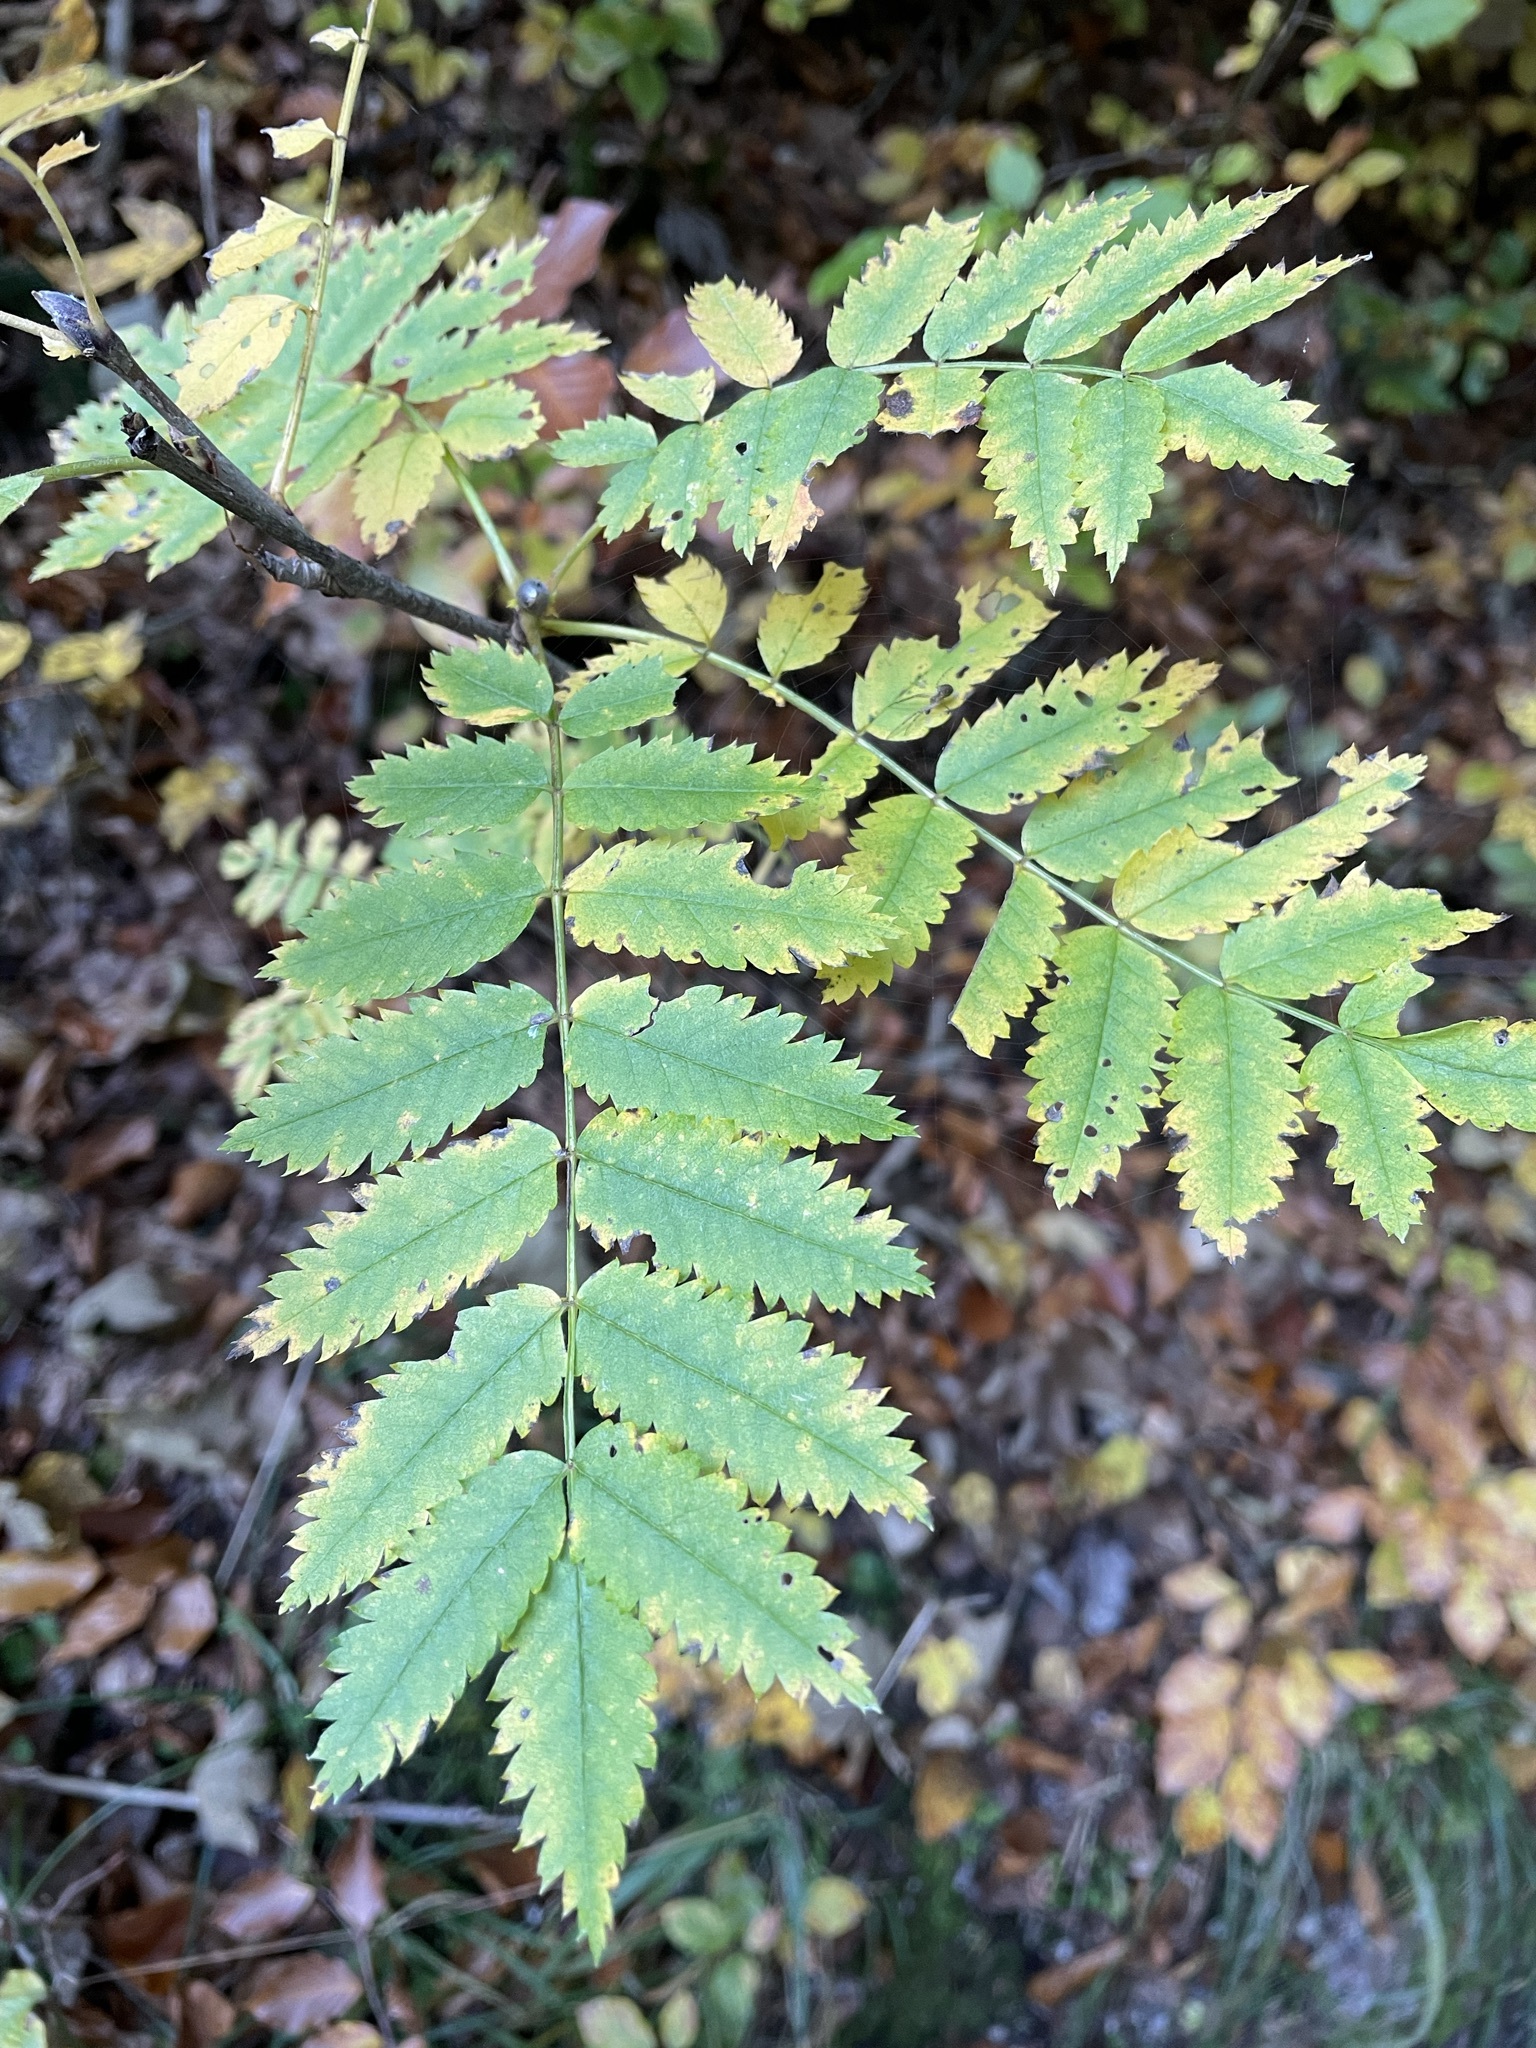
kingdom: Plantae
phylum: Tracheophyta
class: Magnoliopsida
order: Rosales
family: Rosaceae
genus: Sorbus
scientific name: Sorbus aucuparia
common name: Rowan
